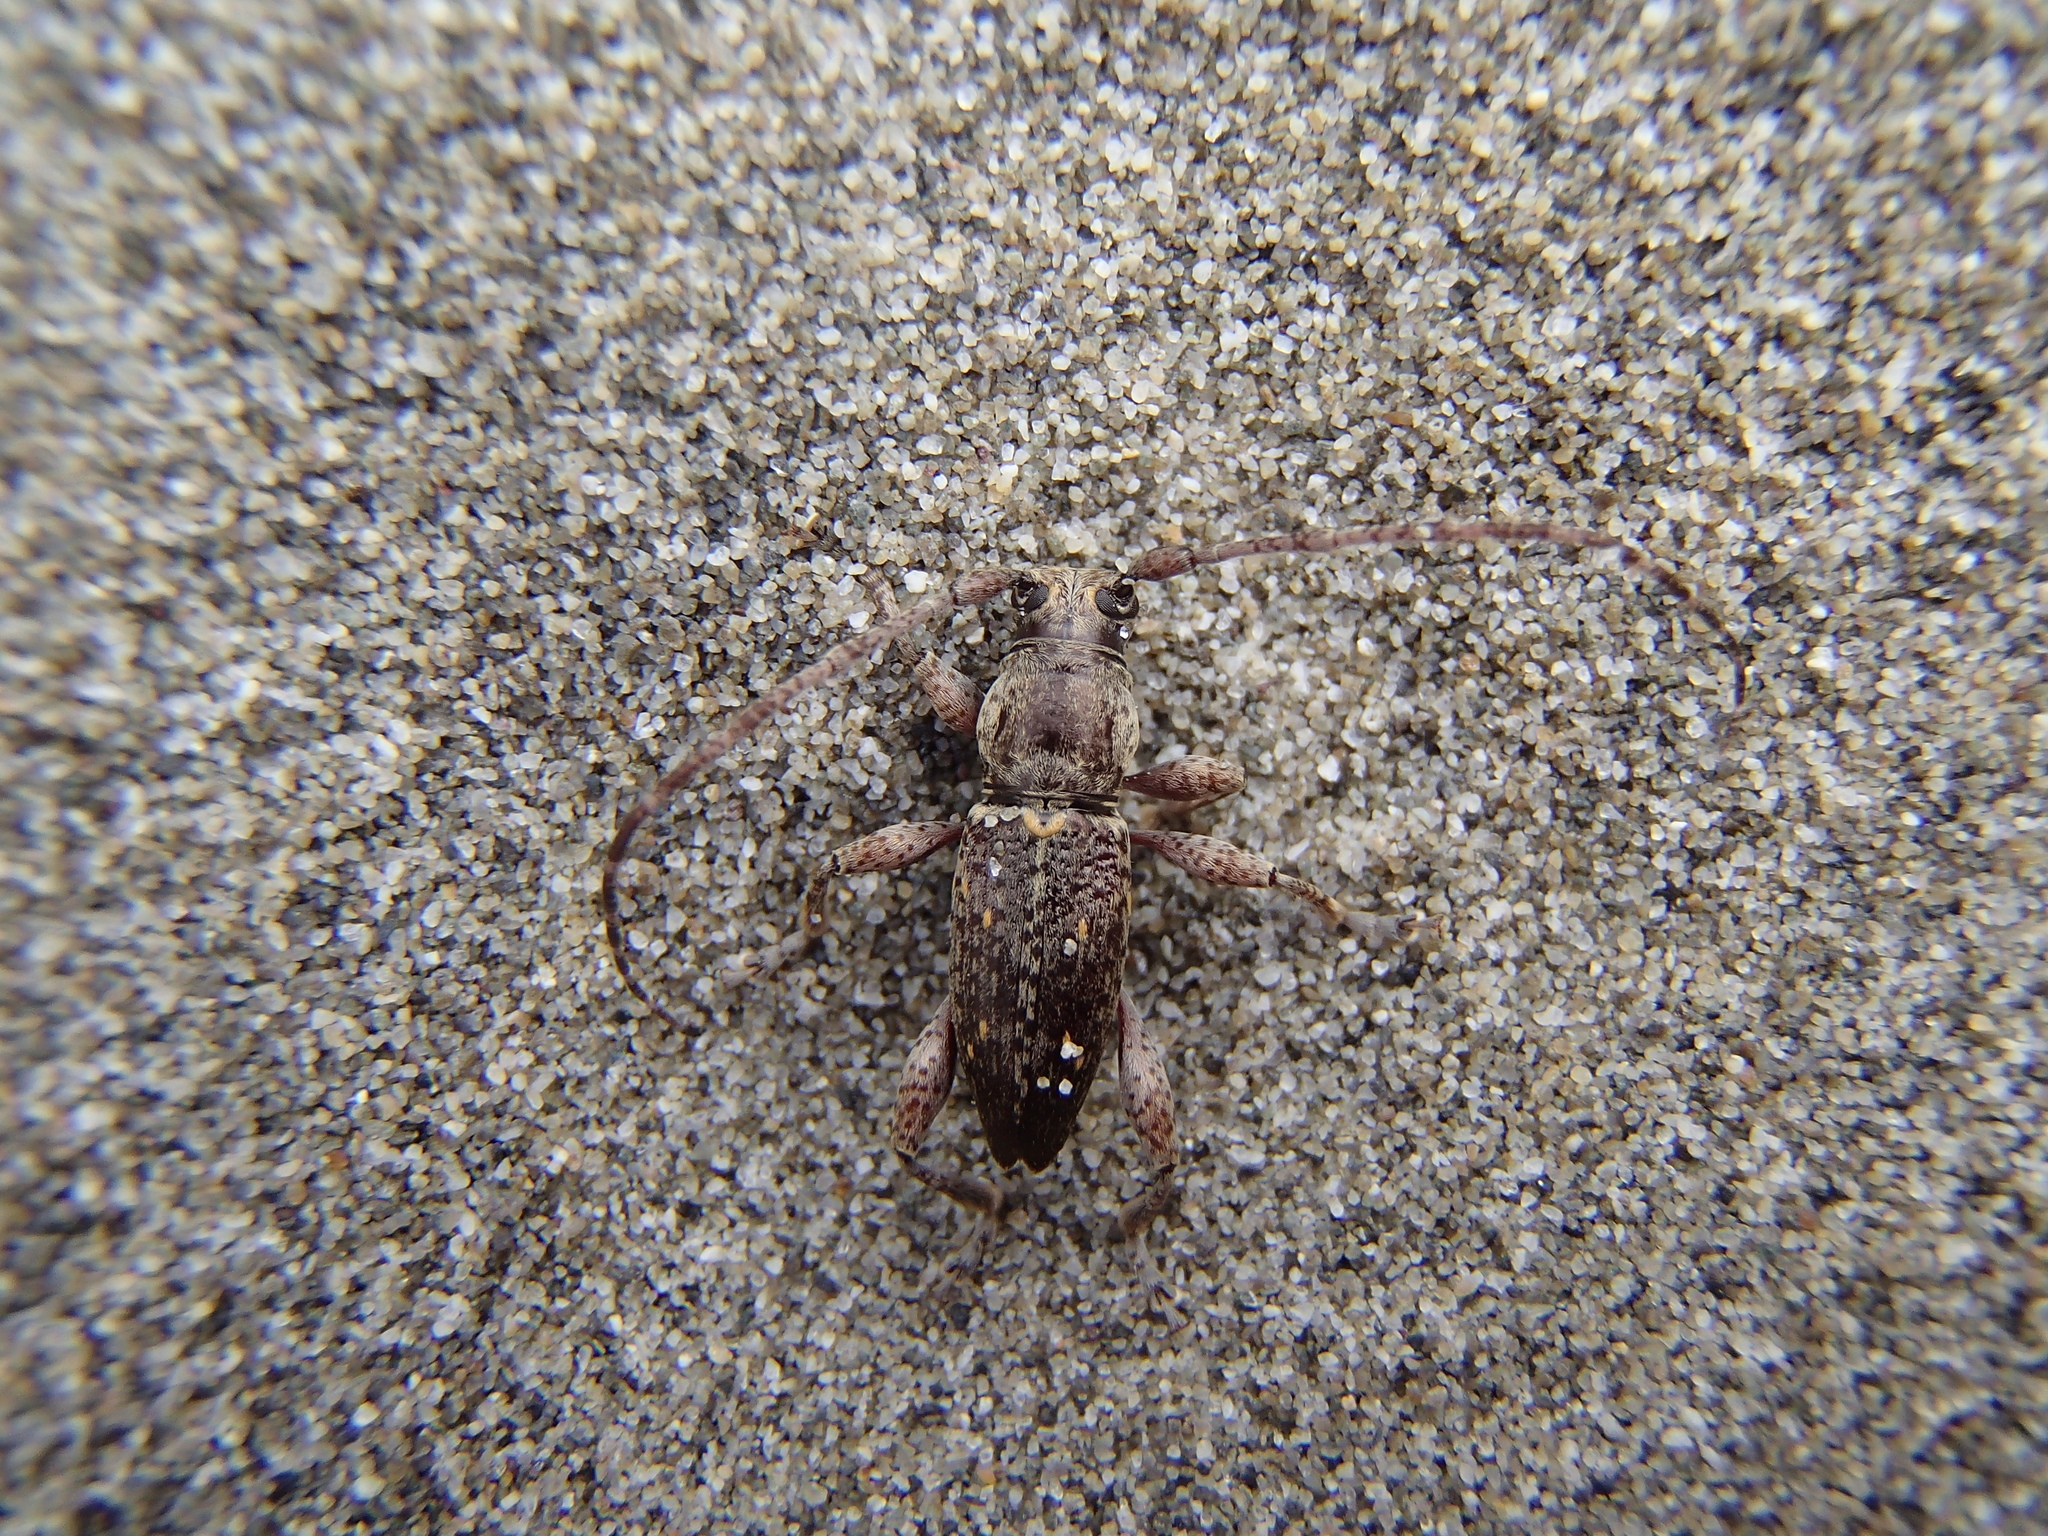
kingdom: Animalia
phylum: Arthropoda
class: Insecta
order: Coleoptera
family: Cerambycidae
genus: Xylotoles
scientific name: Xylotoles griseus
